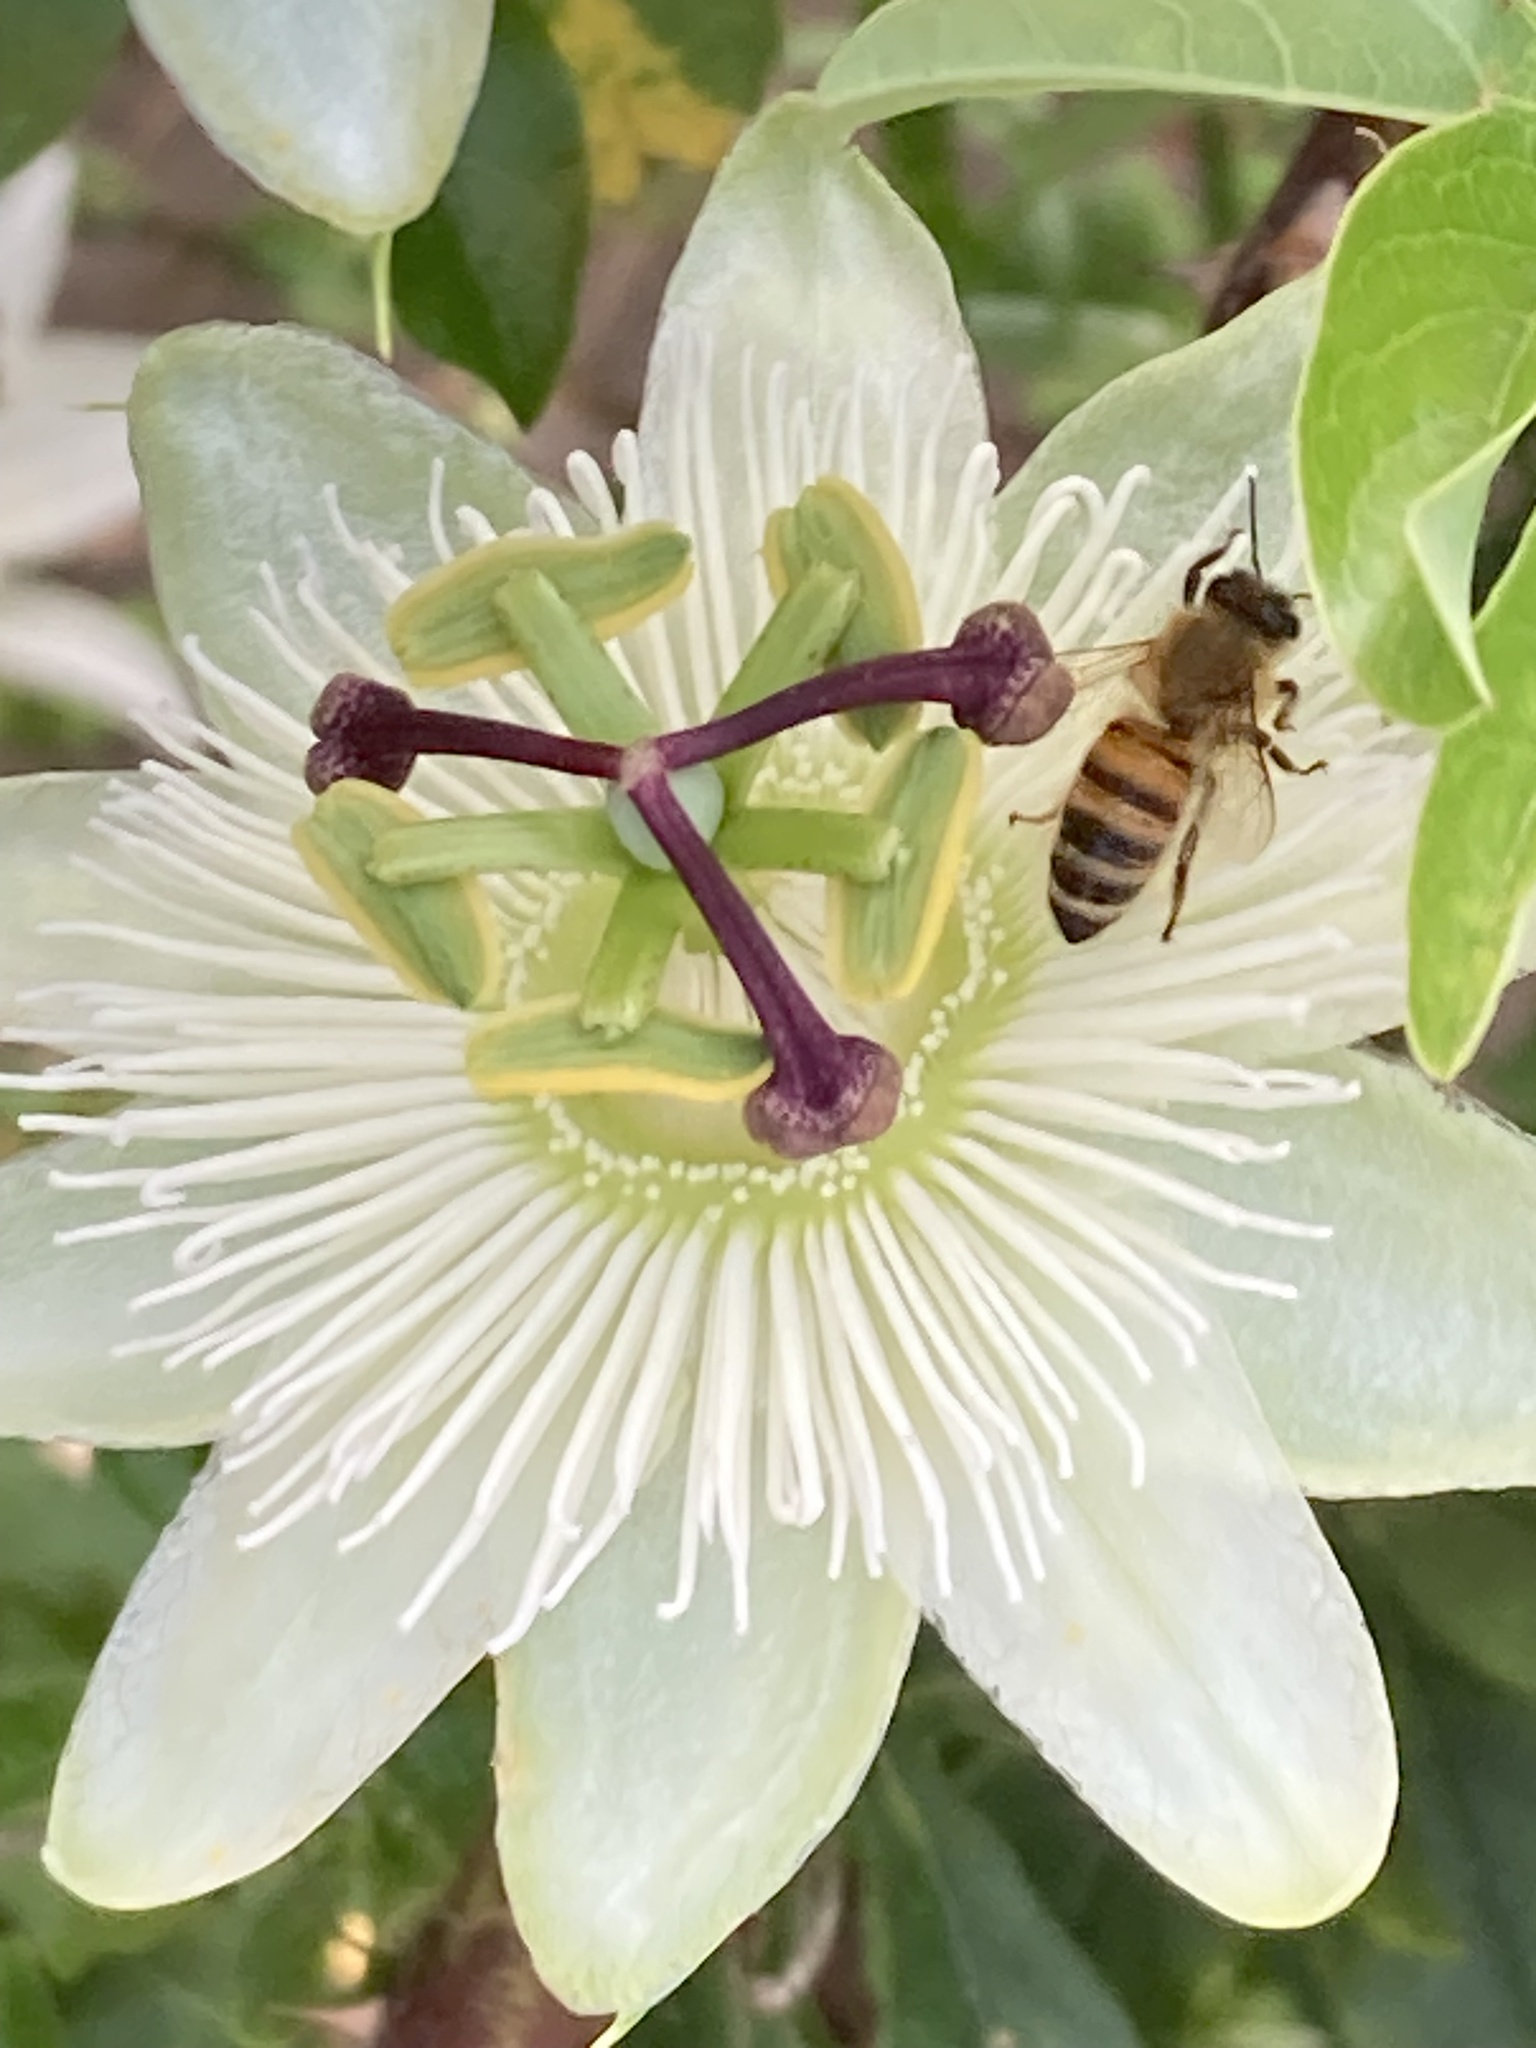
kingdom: Animalia
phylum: Arthropoda
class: Insecta
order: Hymenoptera
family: Apidae
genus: Apis
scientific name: Apis mellifera
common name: Honey bee
